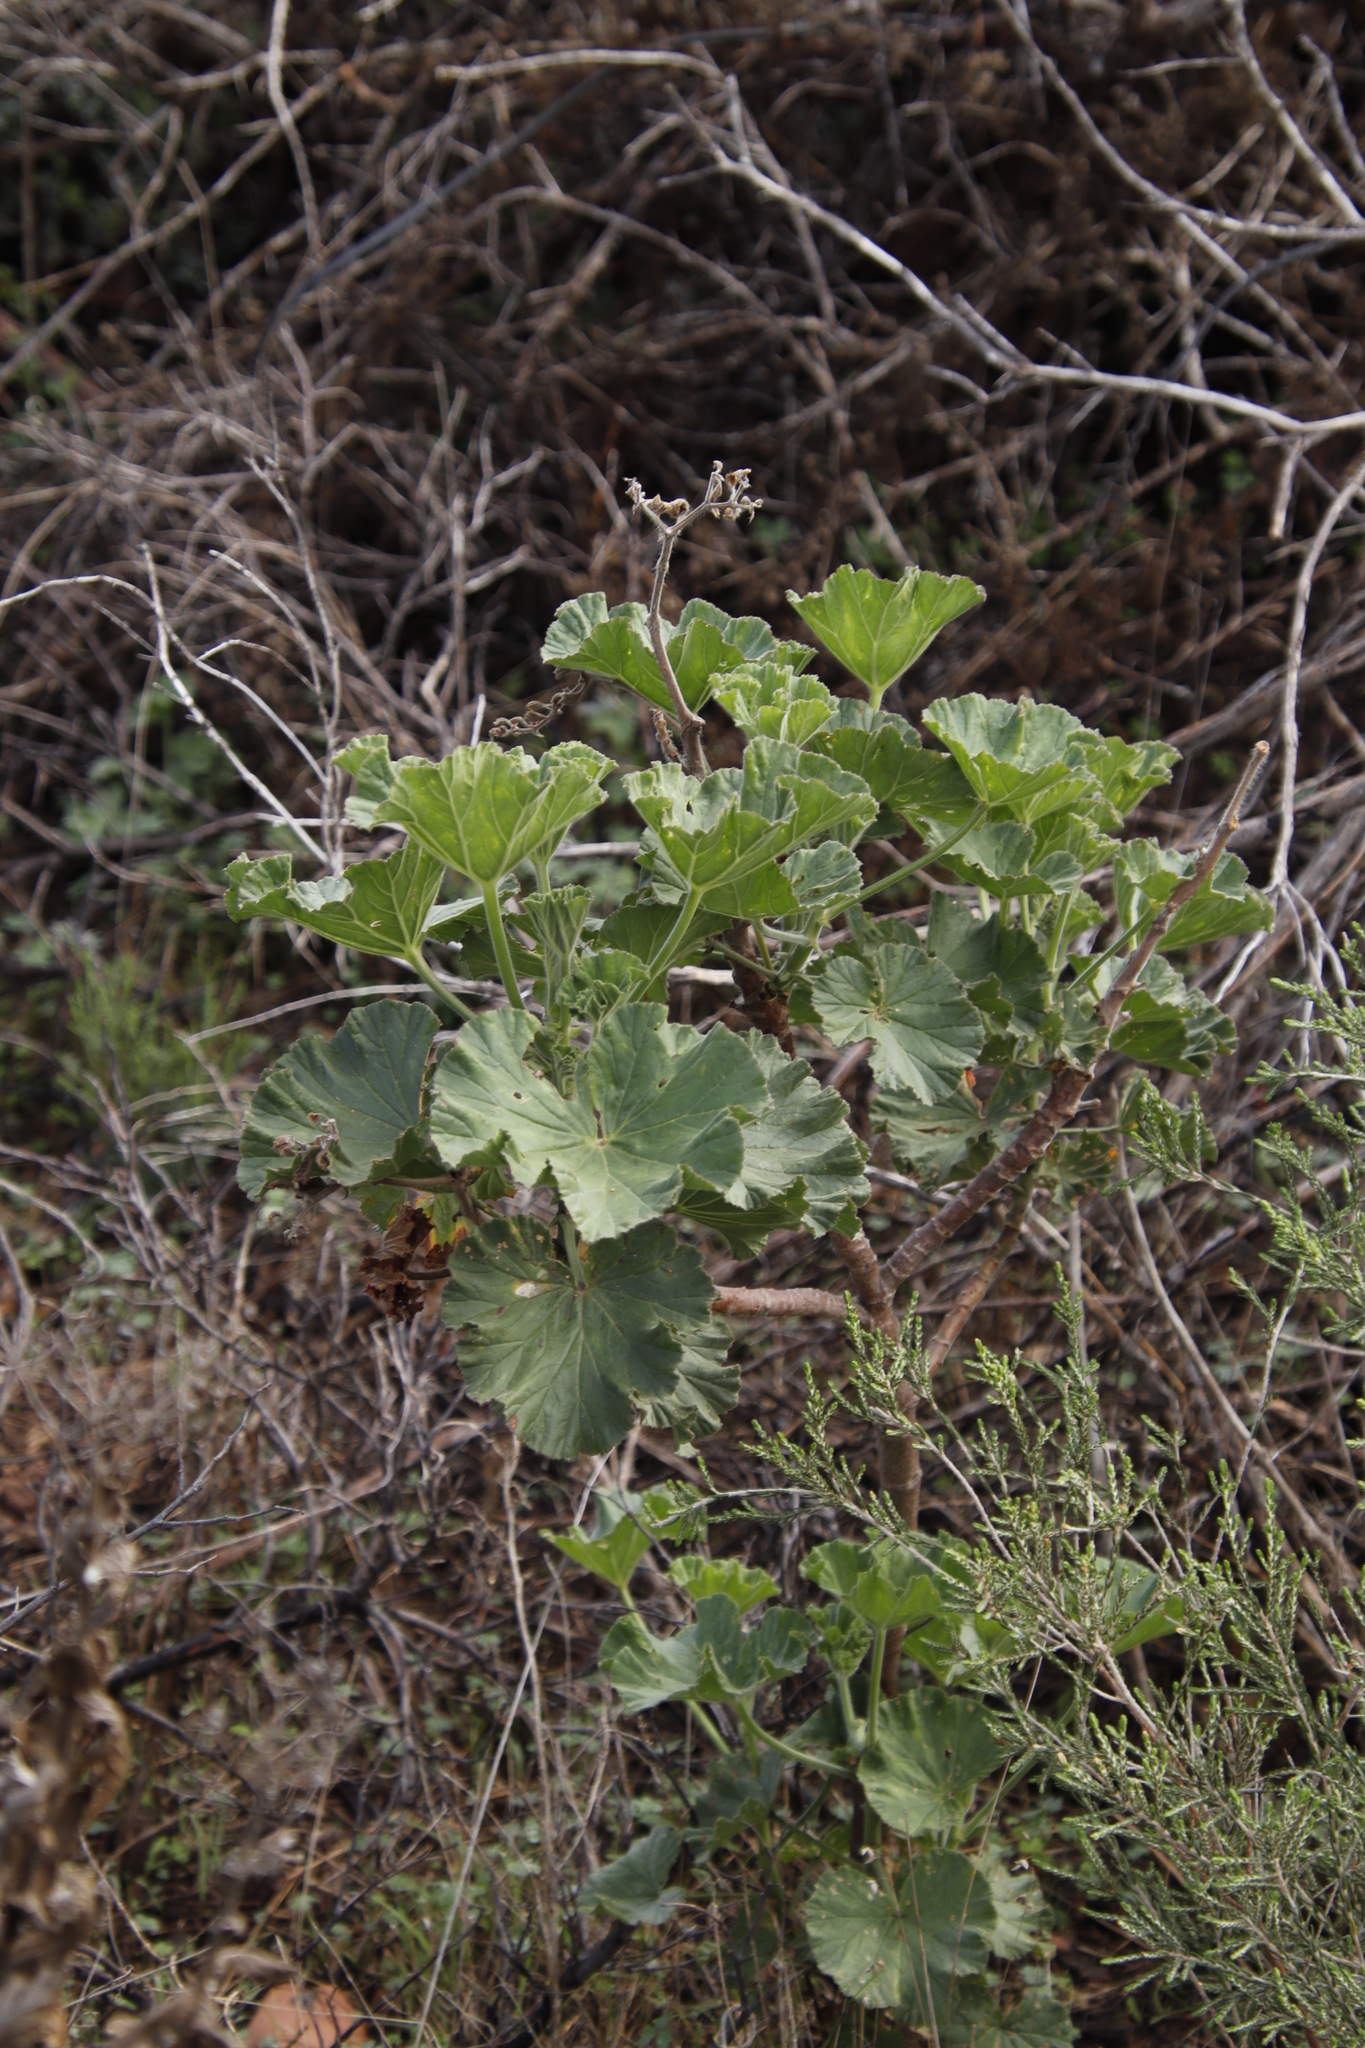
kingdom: Plantae
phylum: Tracheophyta
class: Magnoliopsida
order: Geraniales
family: Geraniaceae
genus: Pelargonium
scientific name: Pelargonium cucullatum
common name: Tree pelargonium
